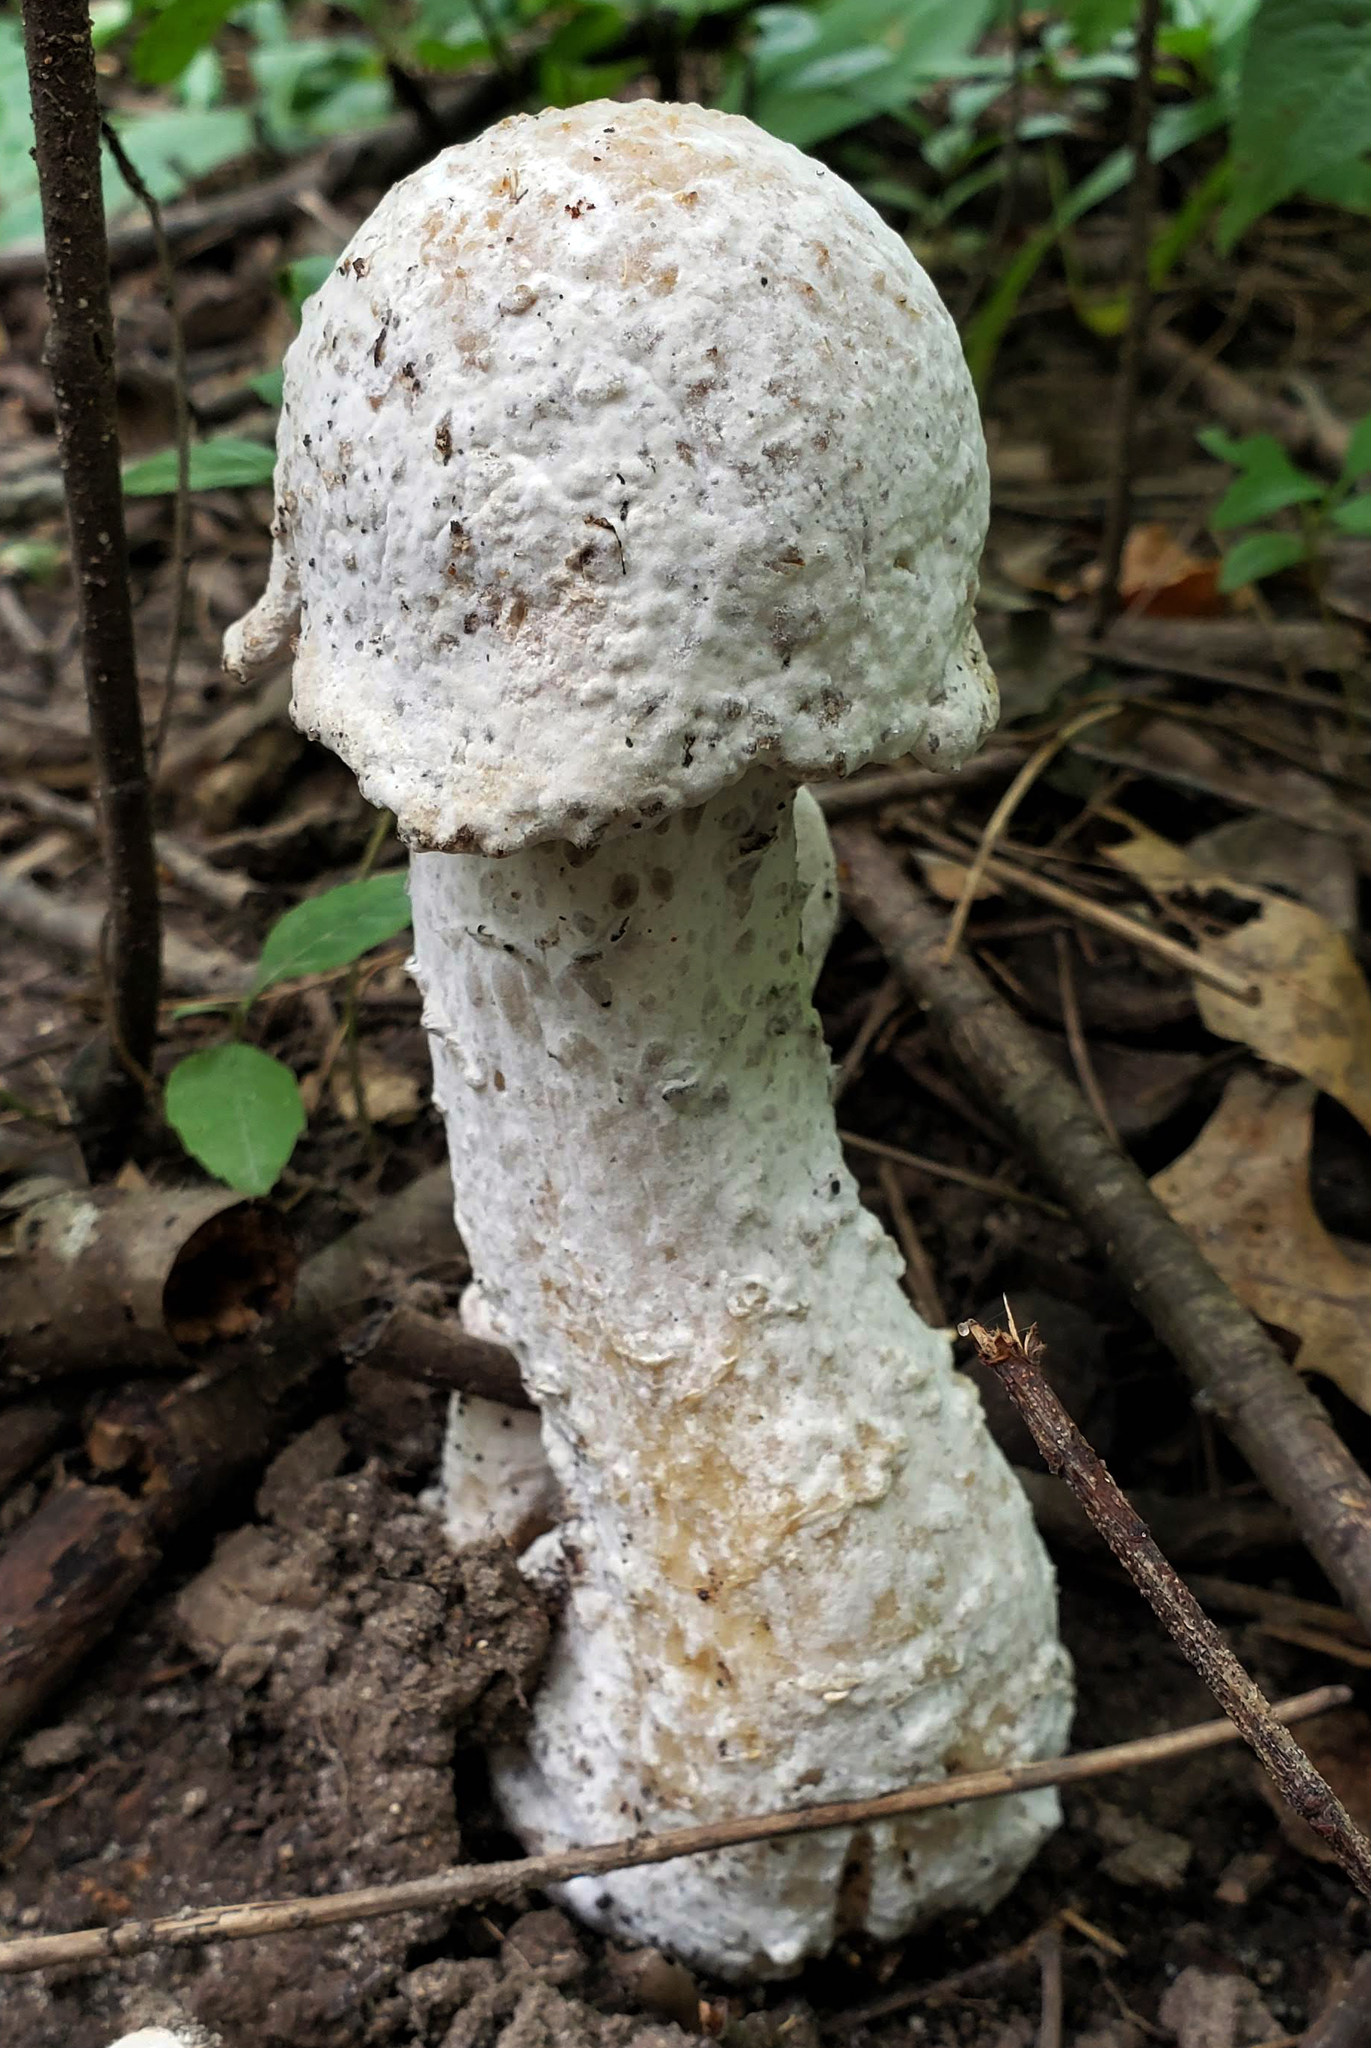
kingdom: Fungi
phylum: Ascomycota
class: Sordariomycetes
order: Hypocreales
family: Hypocreaceae
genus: Hypomyces
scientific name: Hypomyces hyalinus
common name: Amanita mold
